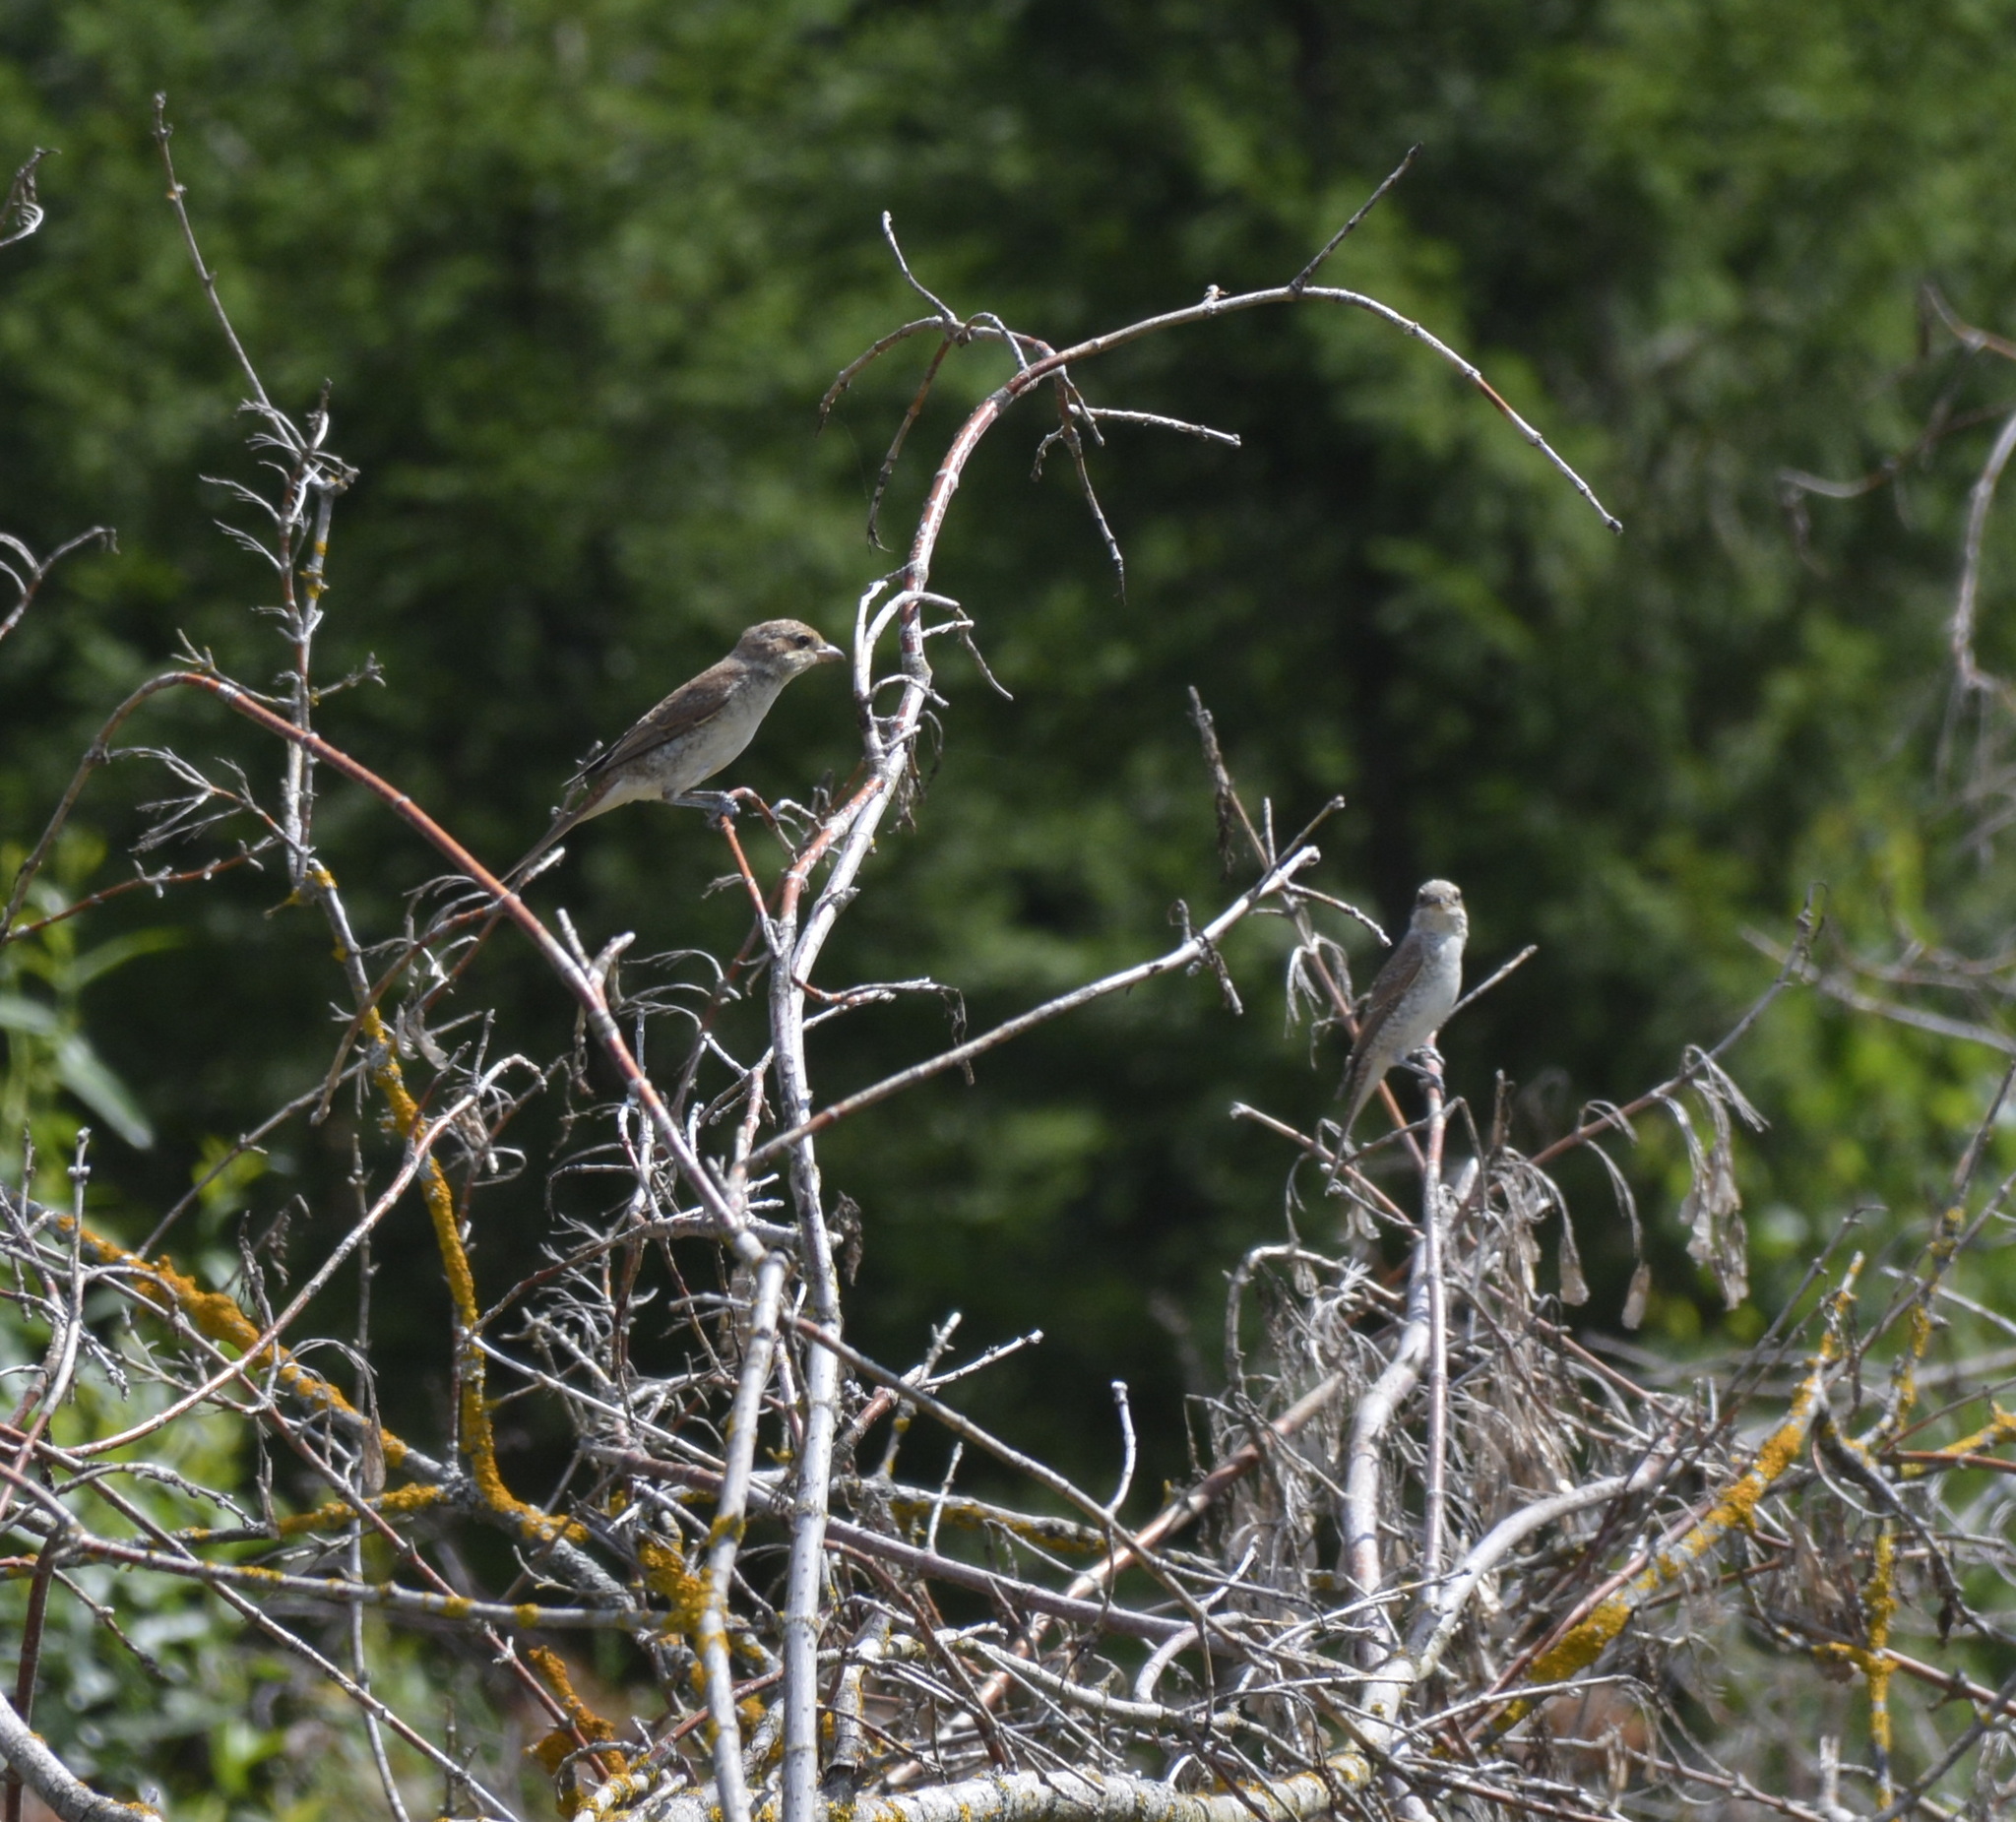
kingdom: Animalia
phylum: Chordata
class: Aves
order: Passeriformes
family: Laniidae
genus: Lanius
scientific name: Lanius collurio
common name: Red-backed shrike
